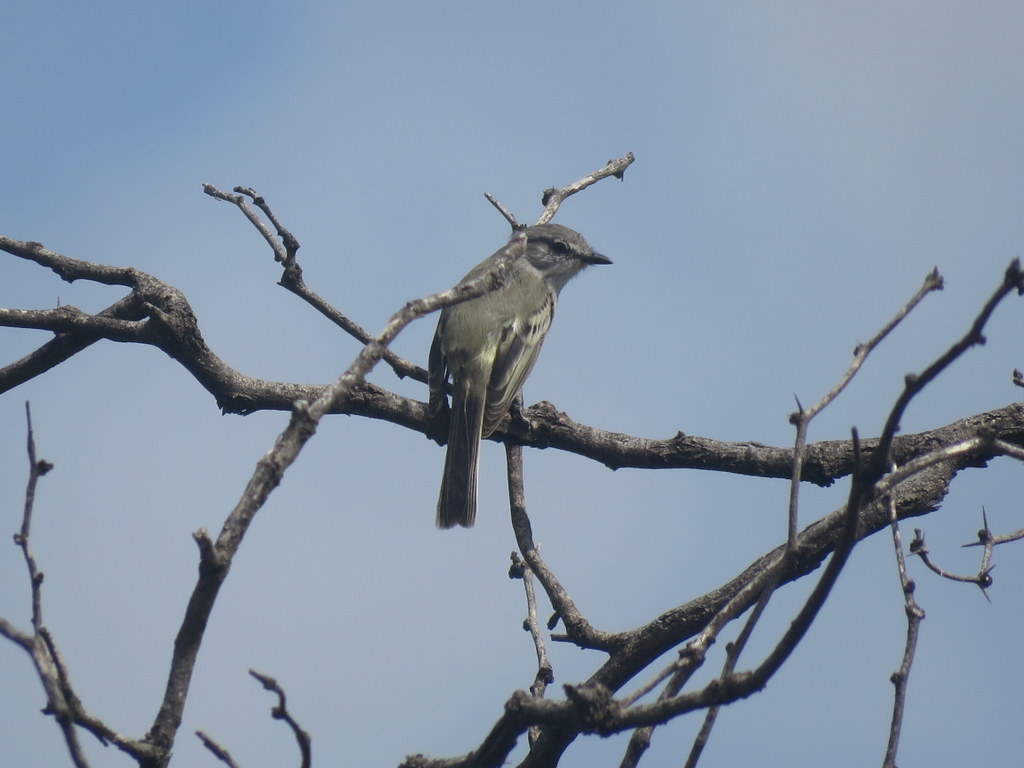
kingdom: Animalia
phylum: Chordata
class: Aves
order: Passeriformes
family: Tyrannidae
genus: Suiriri
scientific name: Suiriri suiriri
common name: Suiriri flycatcher
